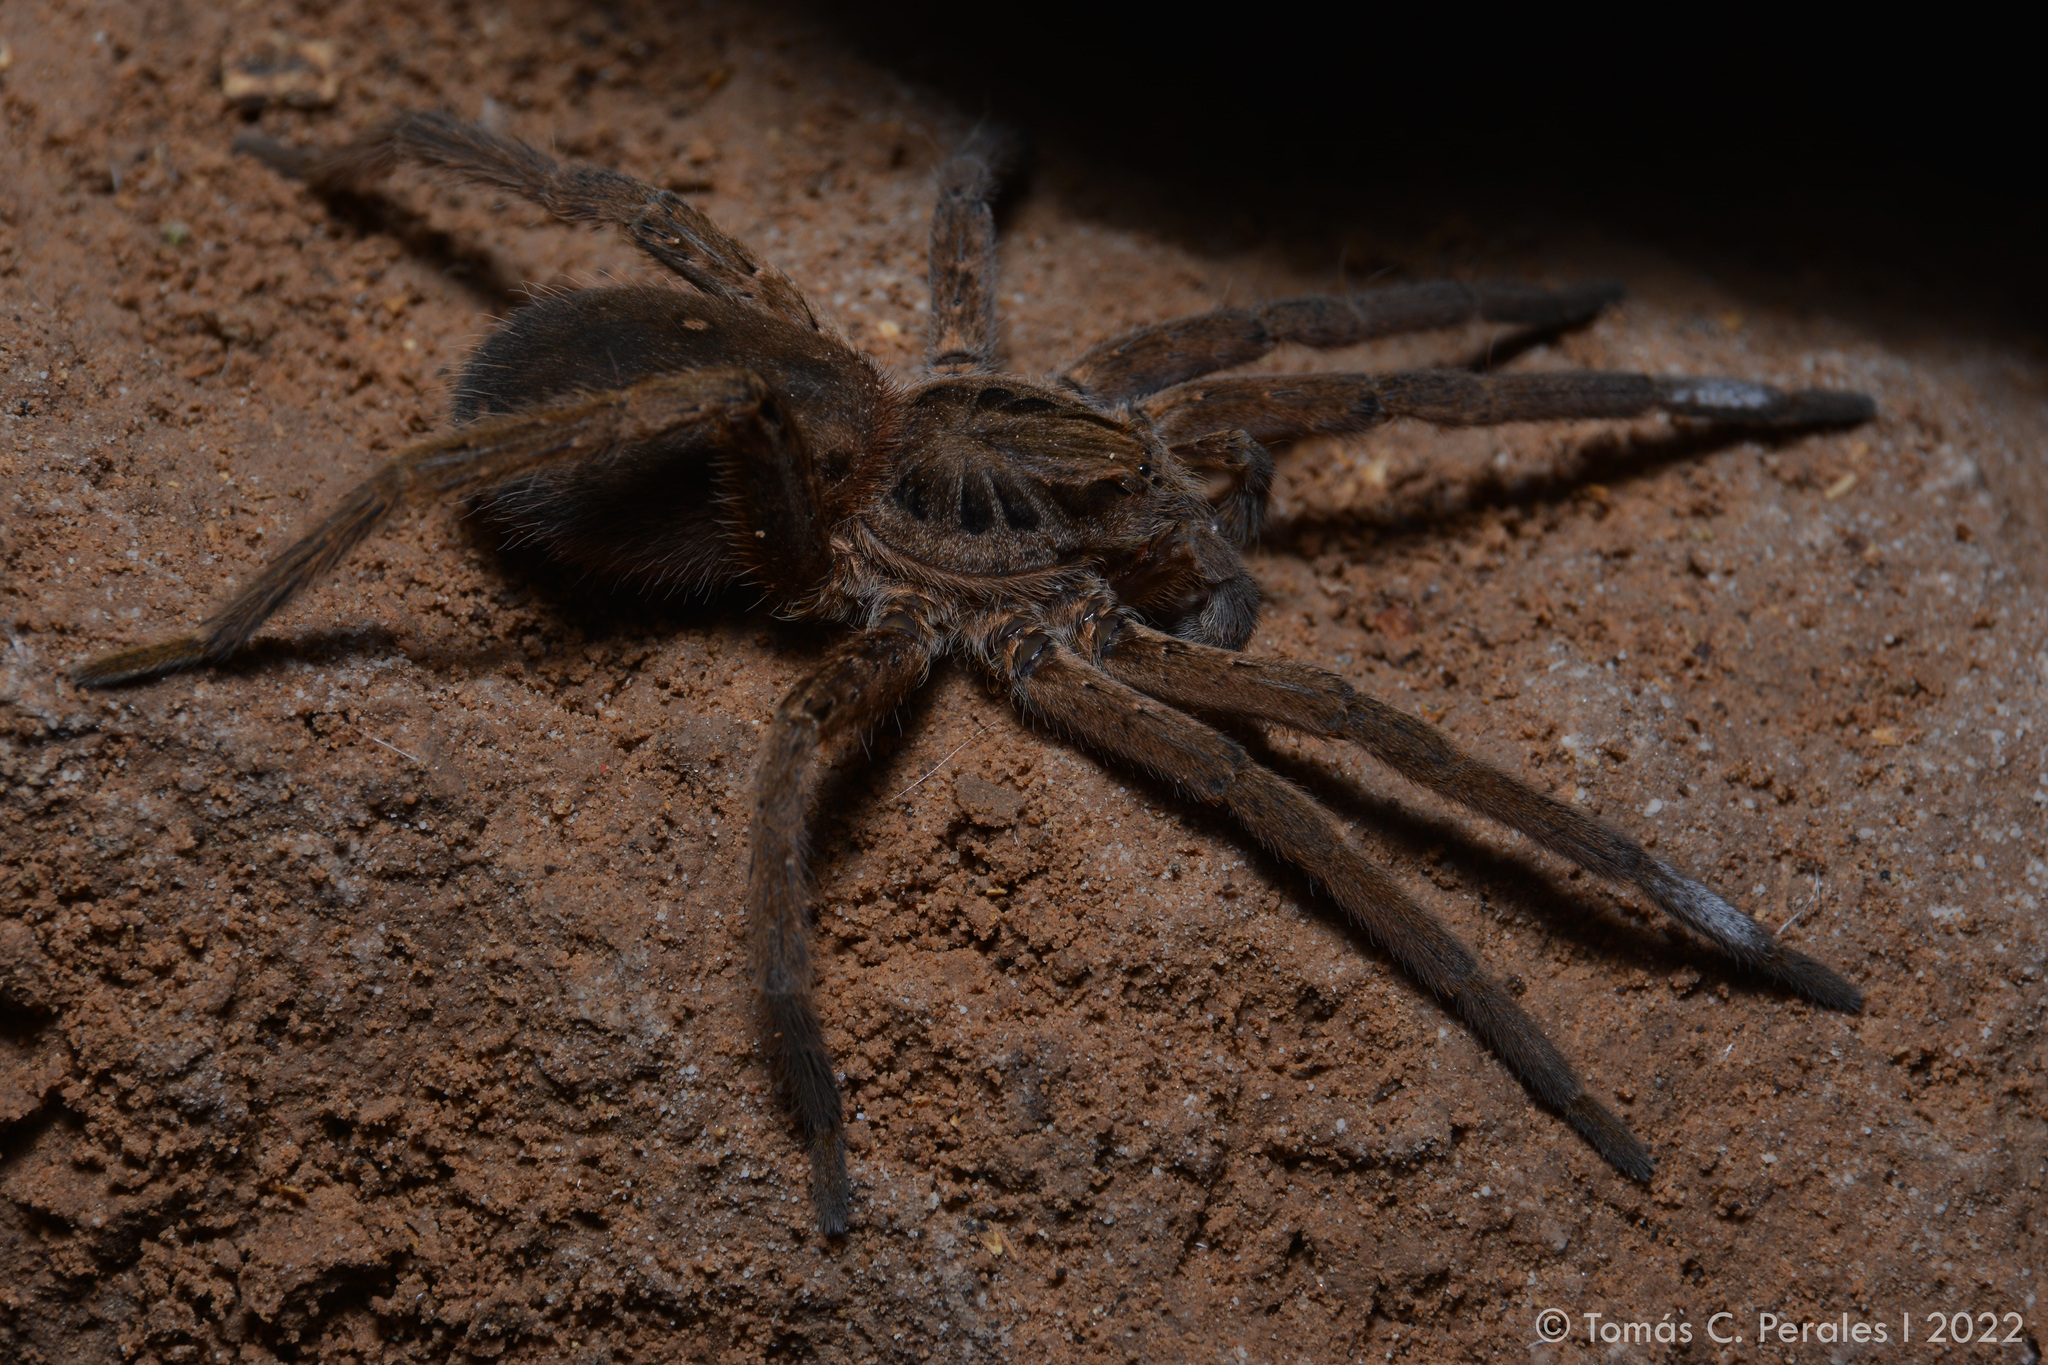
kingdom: Animalia
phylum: Arthropoda
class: Arachnida
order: Araneae
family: Ctenidae
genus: Ancylometes
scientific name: Ancylometes concolor
